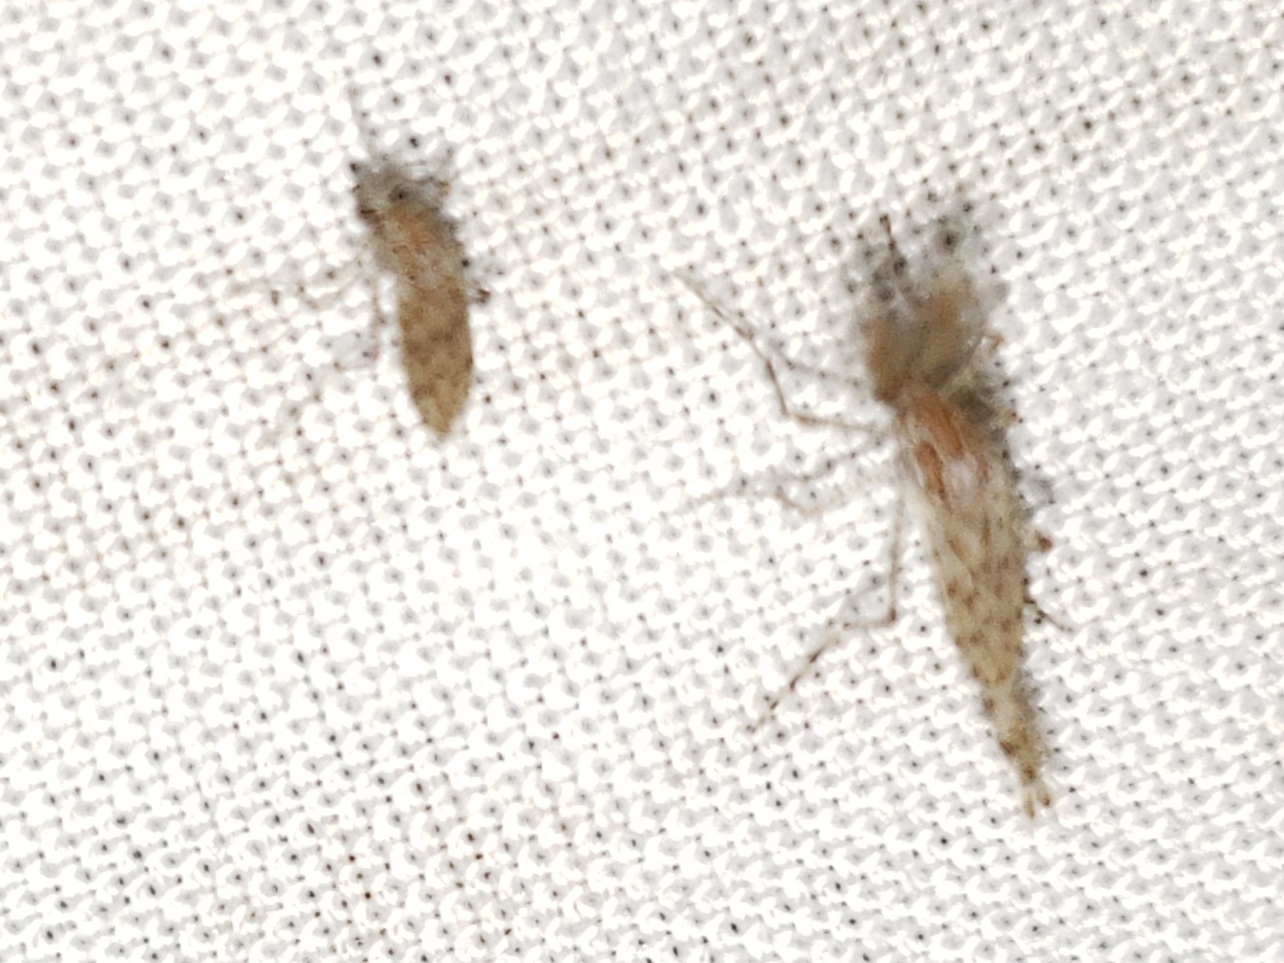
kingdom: Animalia
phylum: Arthropoda
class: Insecta
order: Diptera
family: Chaoboridae
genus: Chaoborus
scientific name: Chaoborus punctipennis
